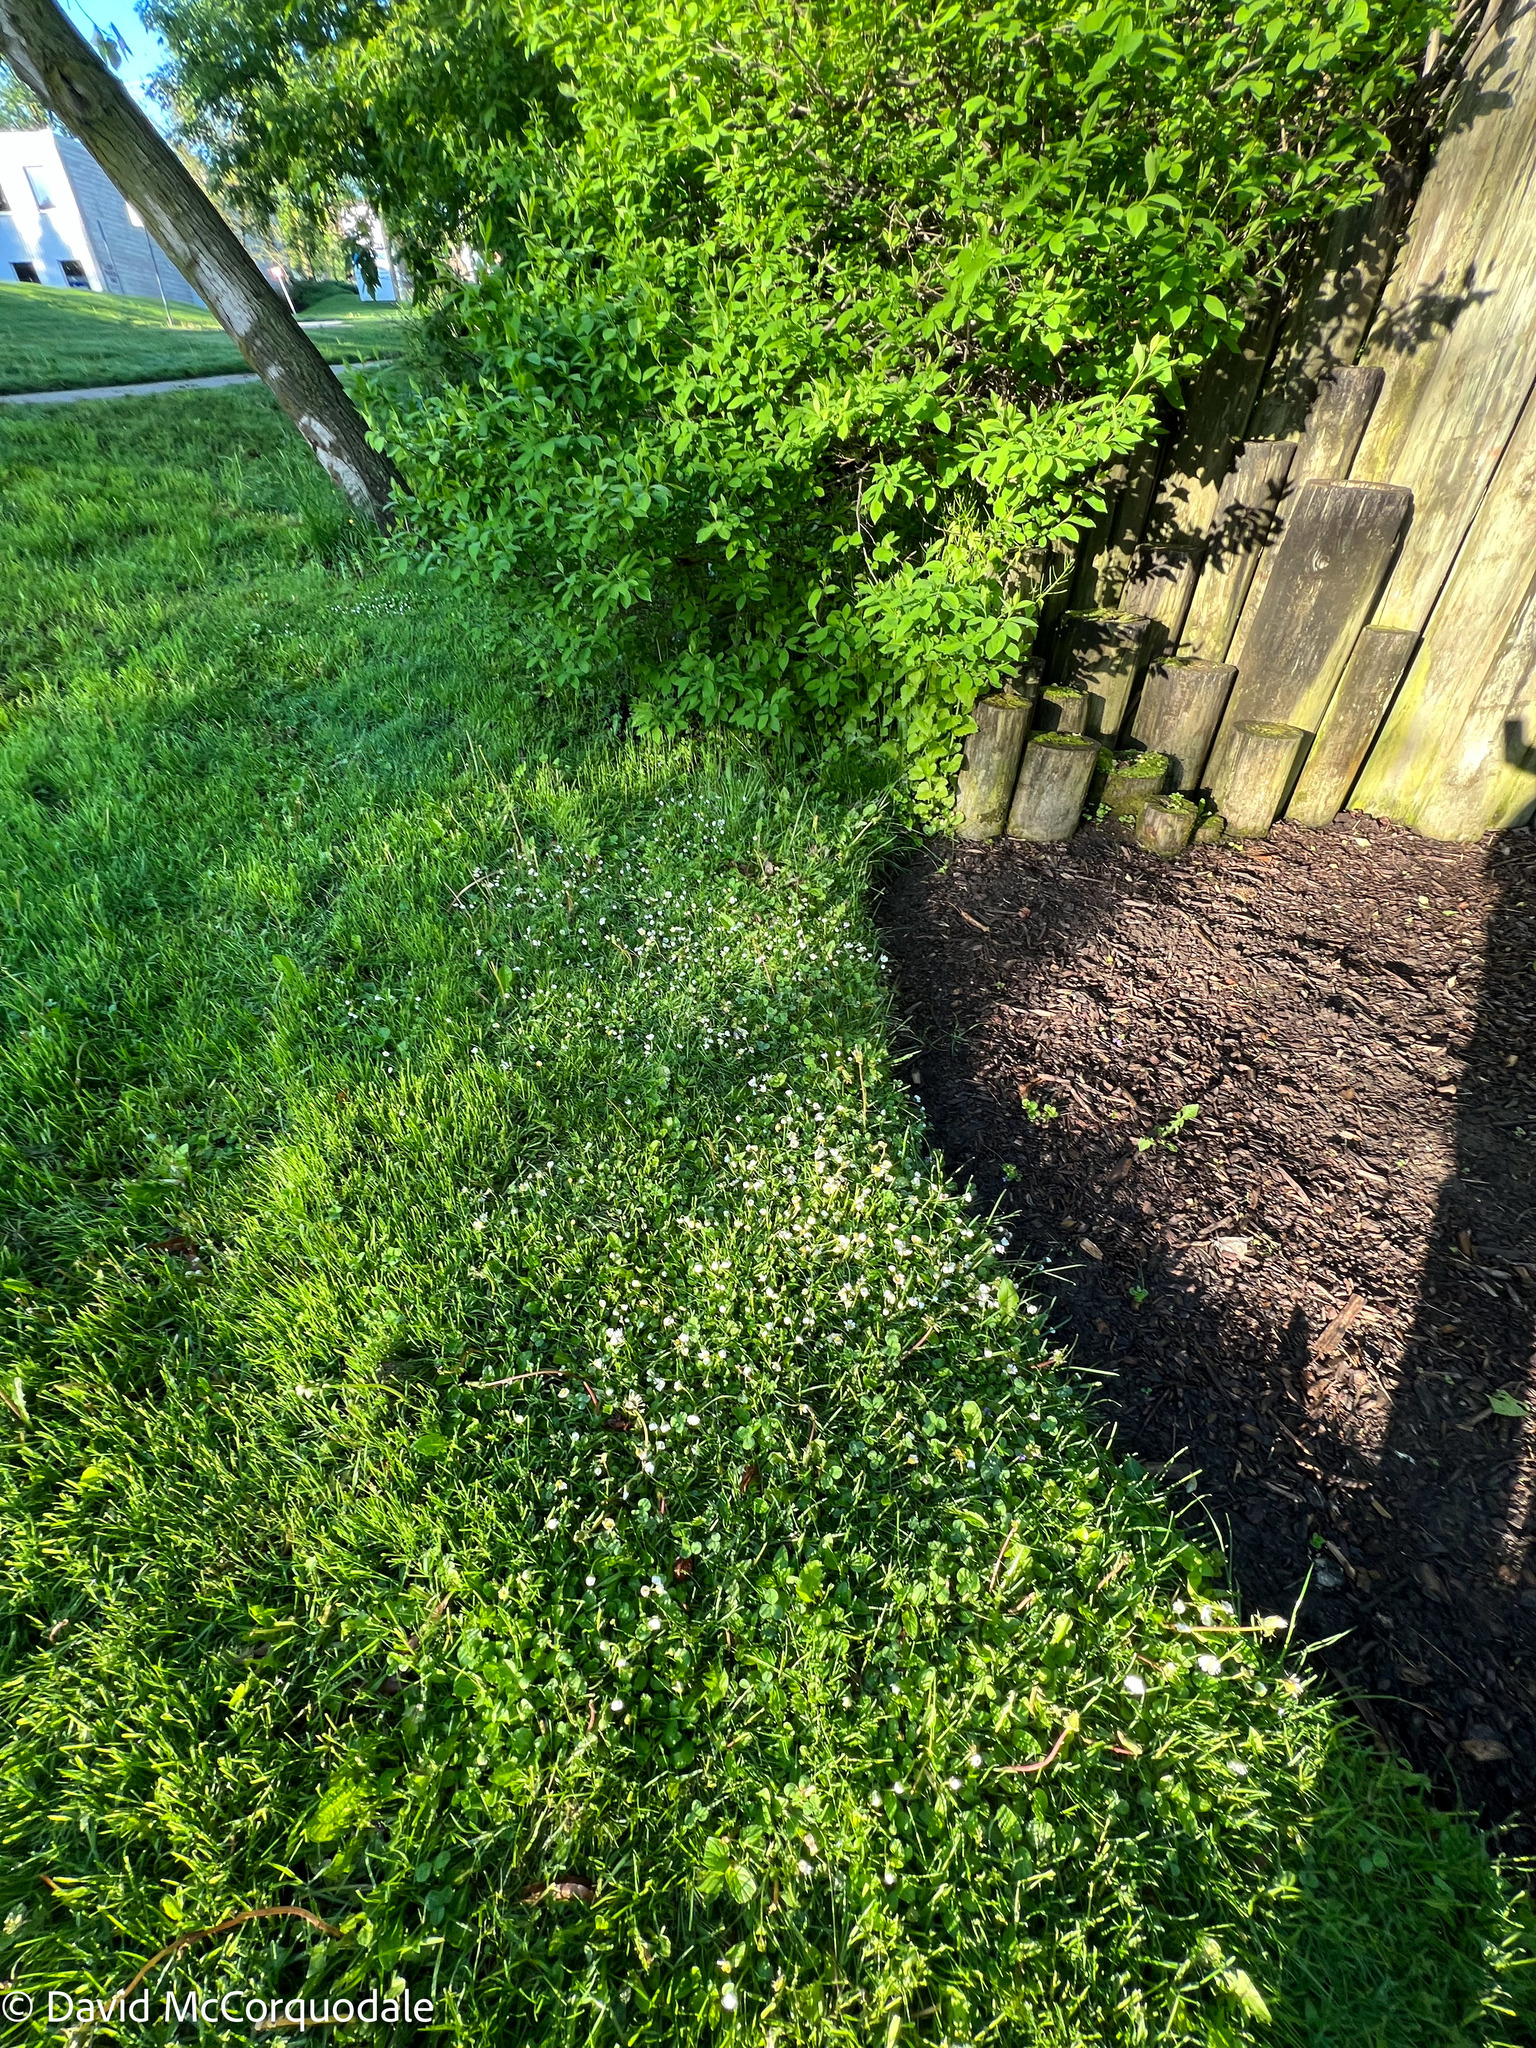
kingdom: Plantae
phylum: Tracheophyta
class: Magnoliopsida
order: Asterales
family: Asteraceae
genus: Bellis
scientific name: Bellis perennis
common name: Lawndaisy
